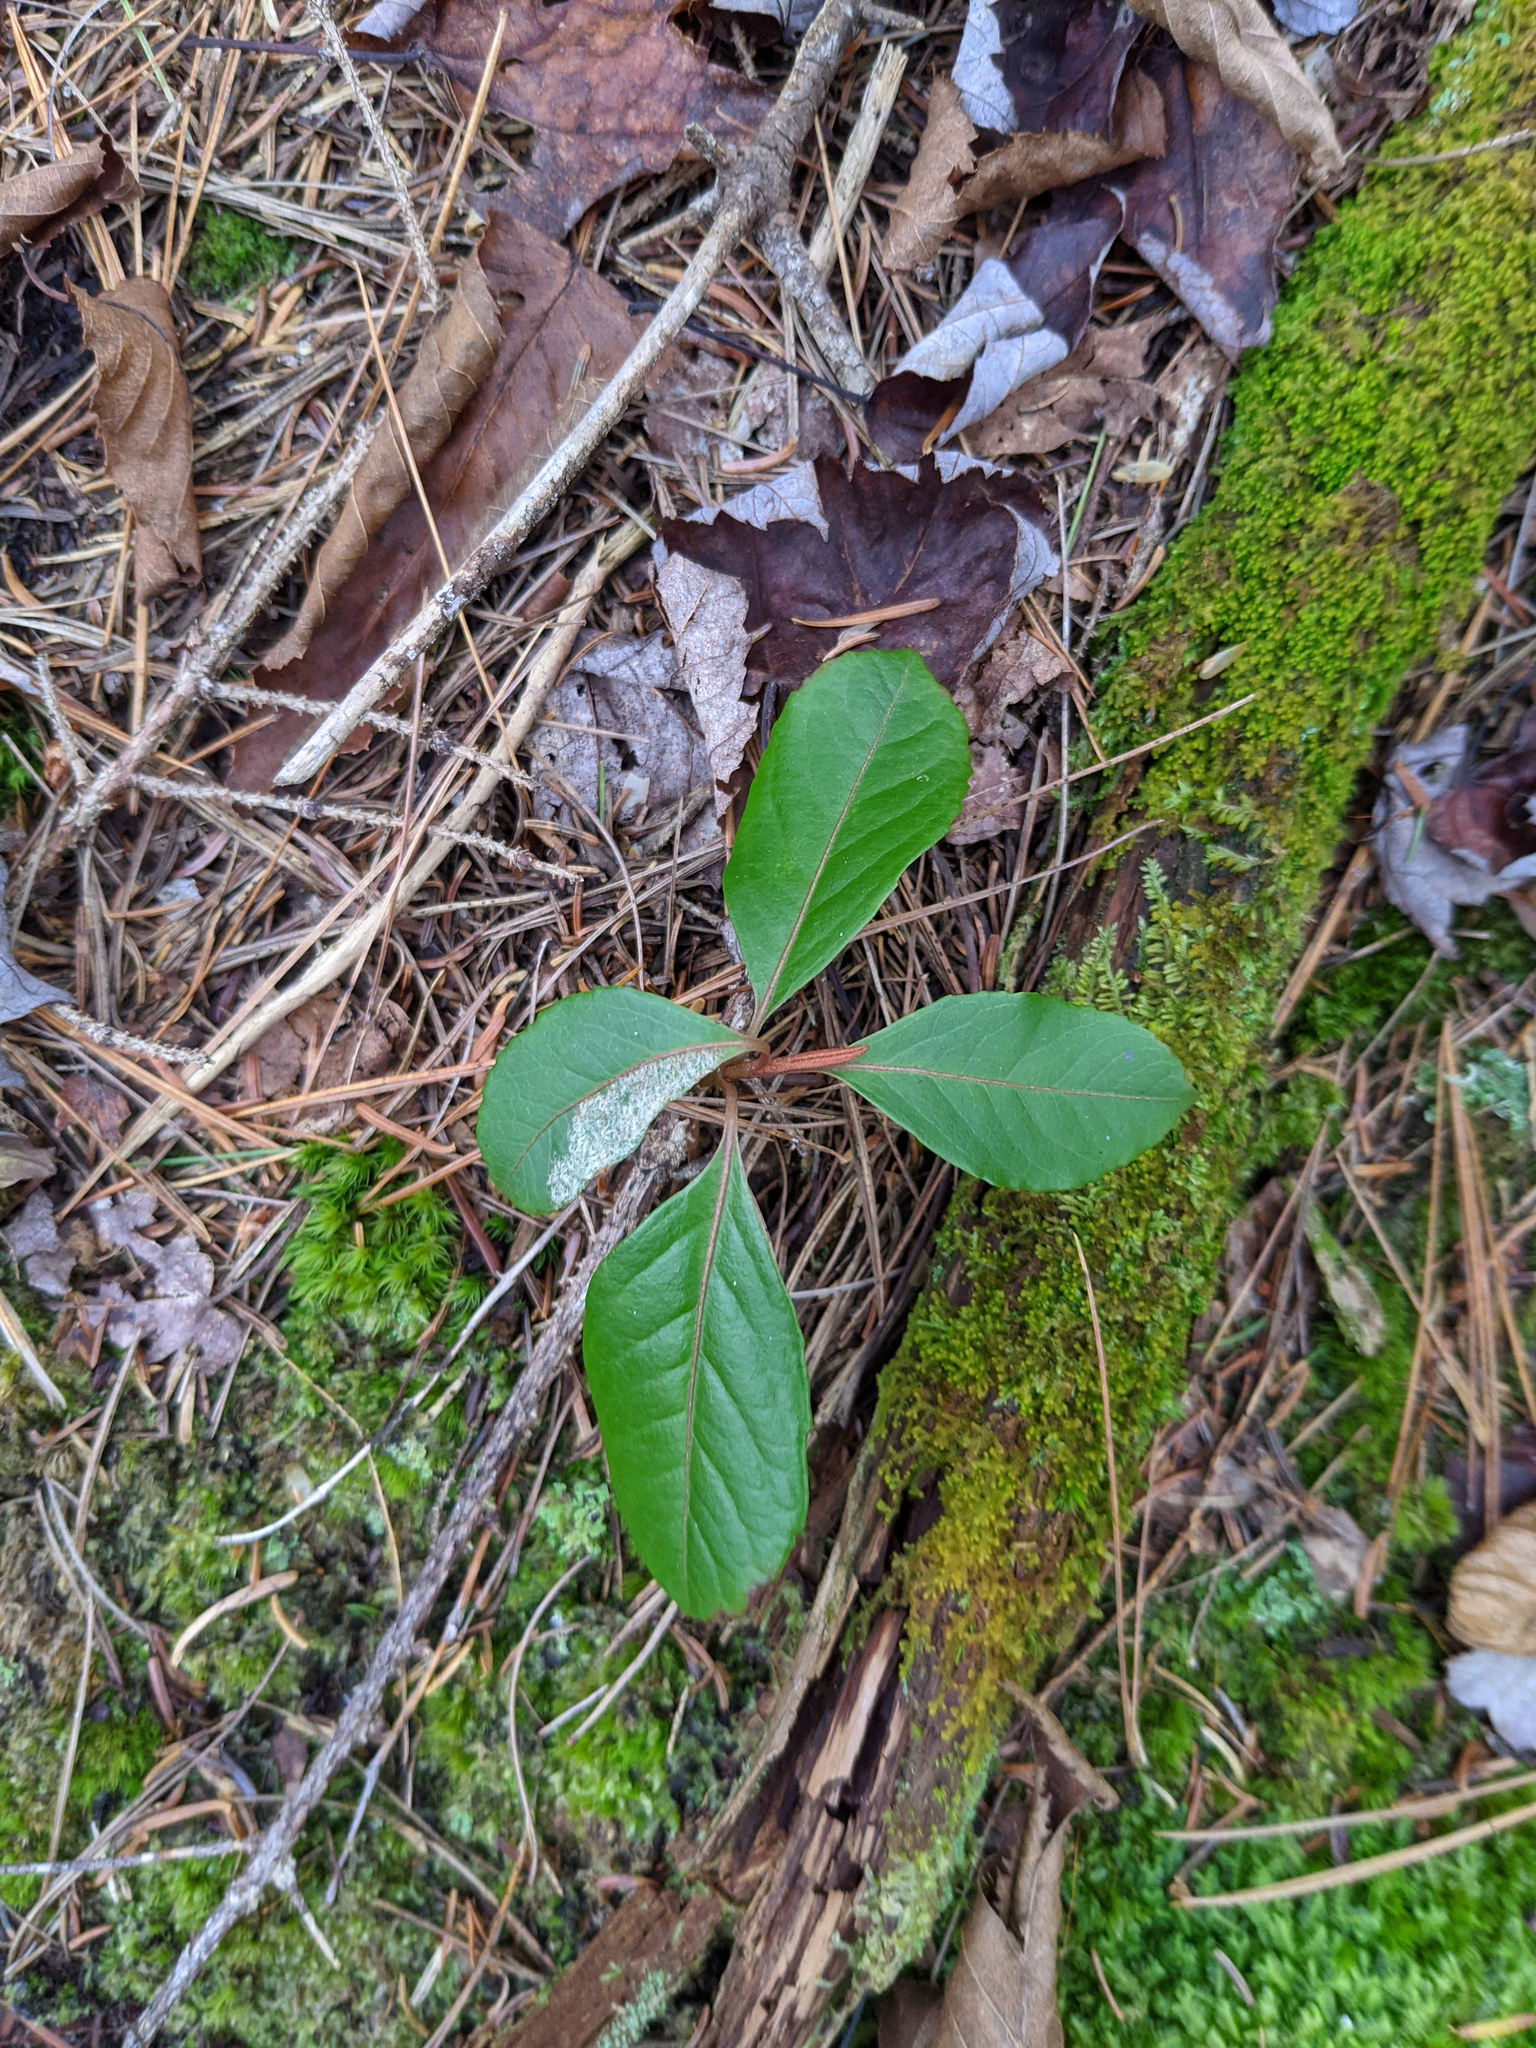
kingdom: Plantae
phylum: Tracheophyta
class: Magnoliopsida
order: Ericales
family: Ericaceae
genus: Gaultheria
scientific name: Gaultheria procumbens
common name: Checkerberry
